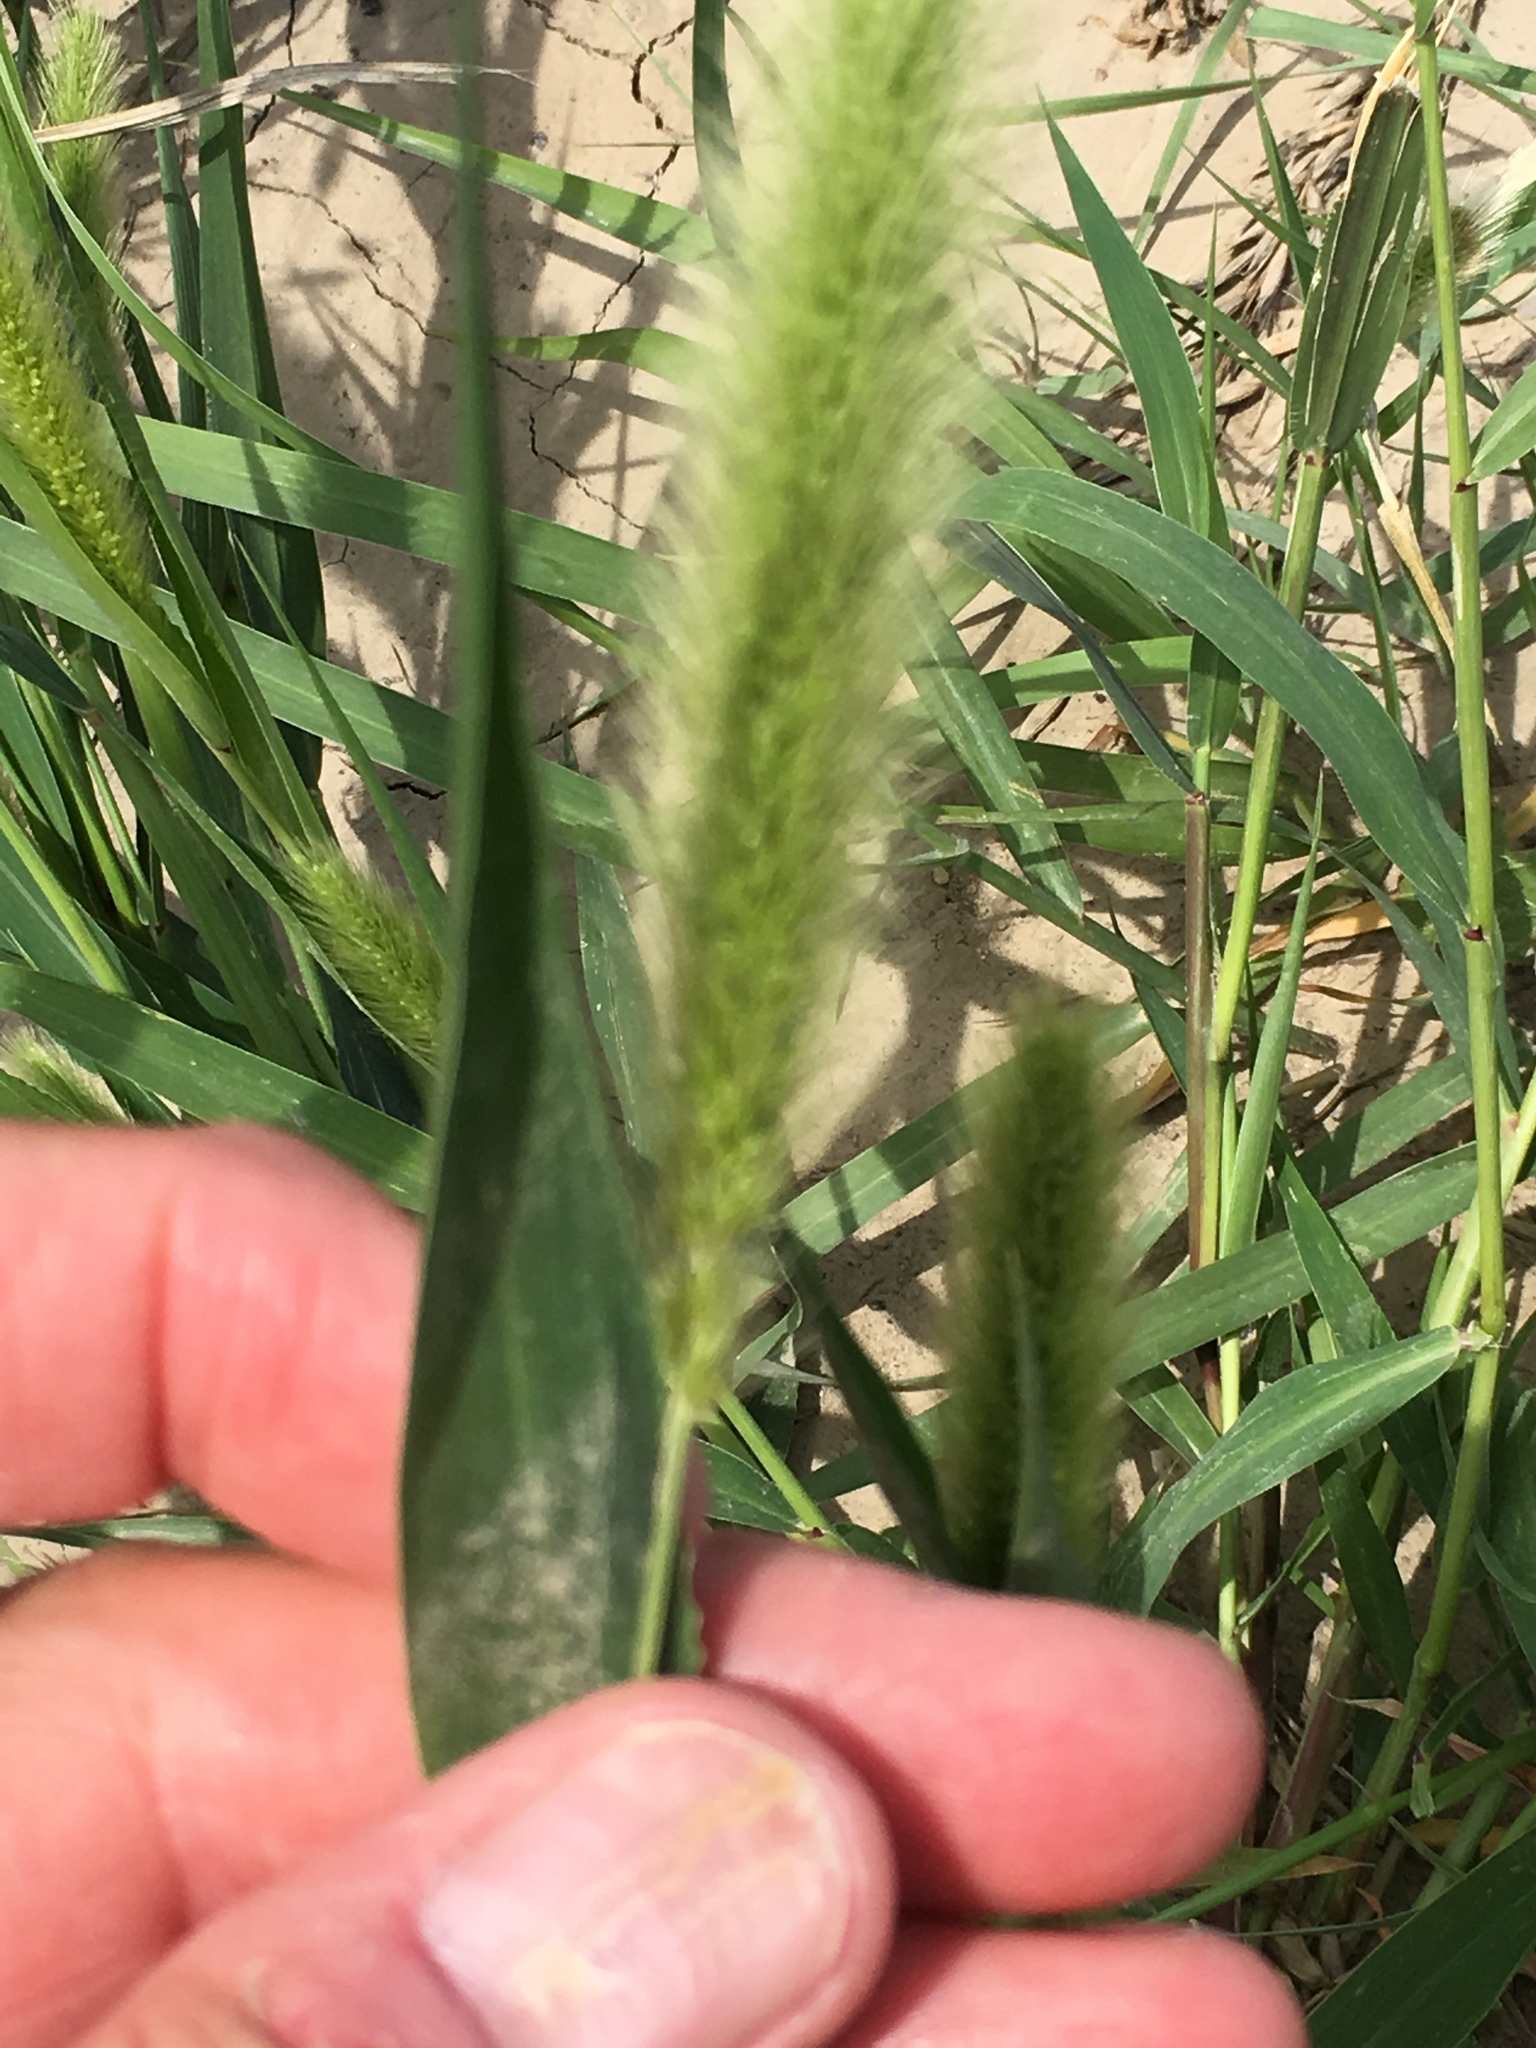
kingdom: Plantae
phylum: Tracheophyta
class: Liliopsida
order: Poales
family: Poaceae
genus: Setaria
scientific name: Setaria viridis
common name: Green bristlegrass
